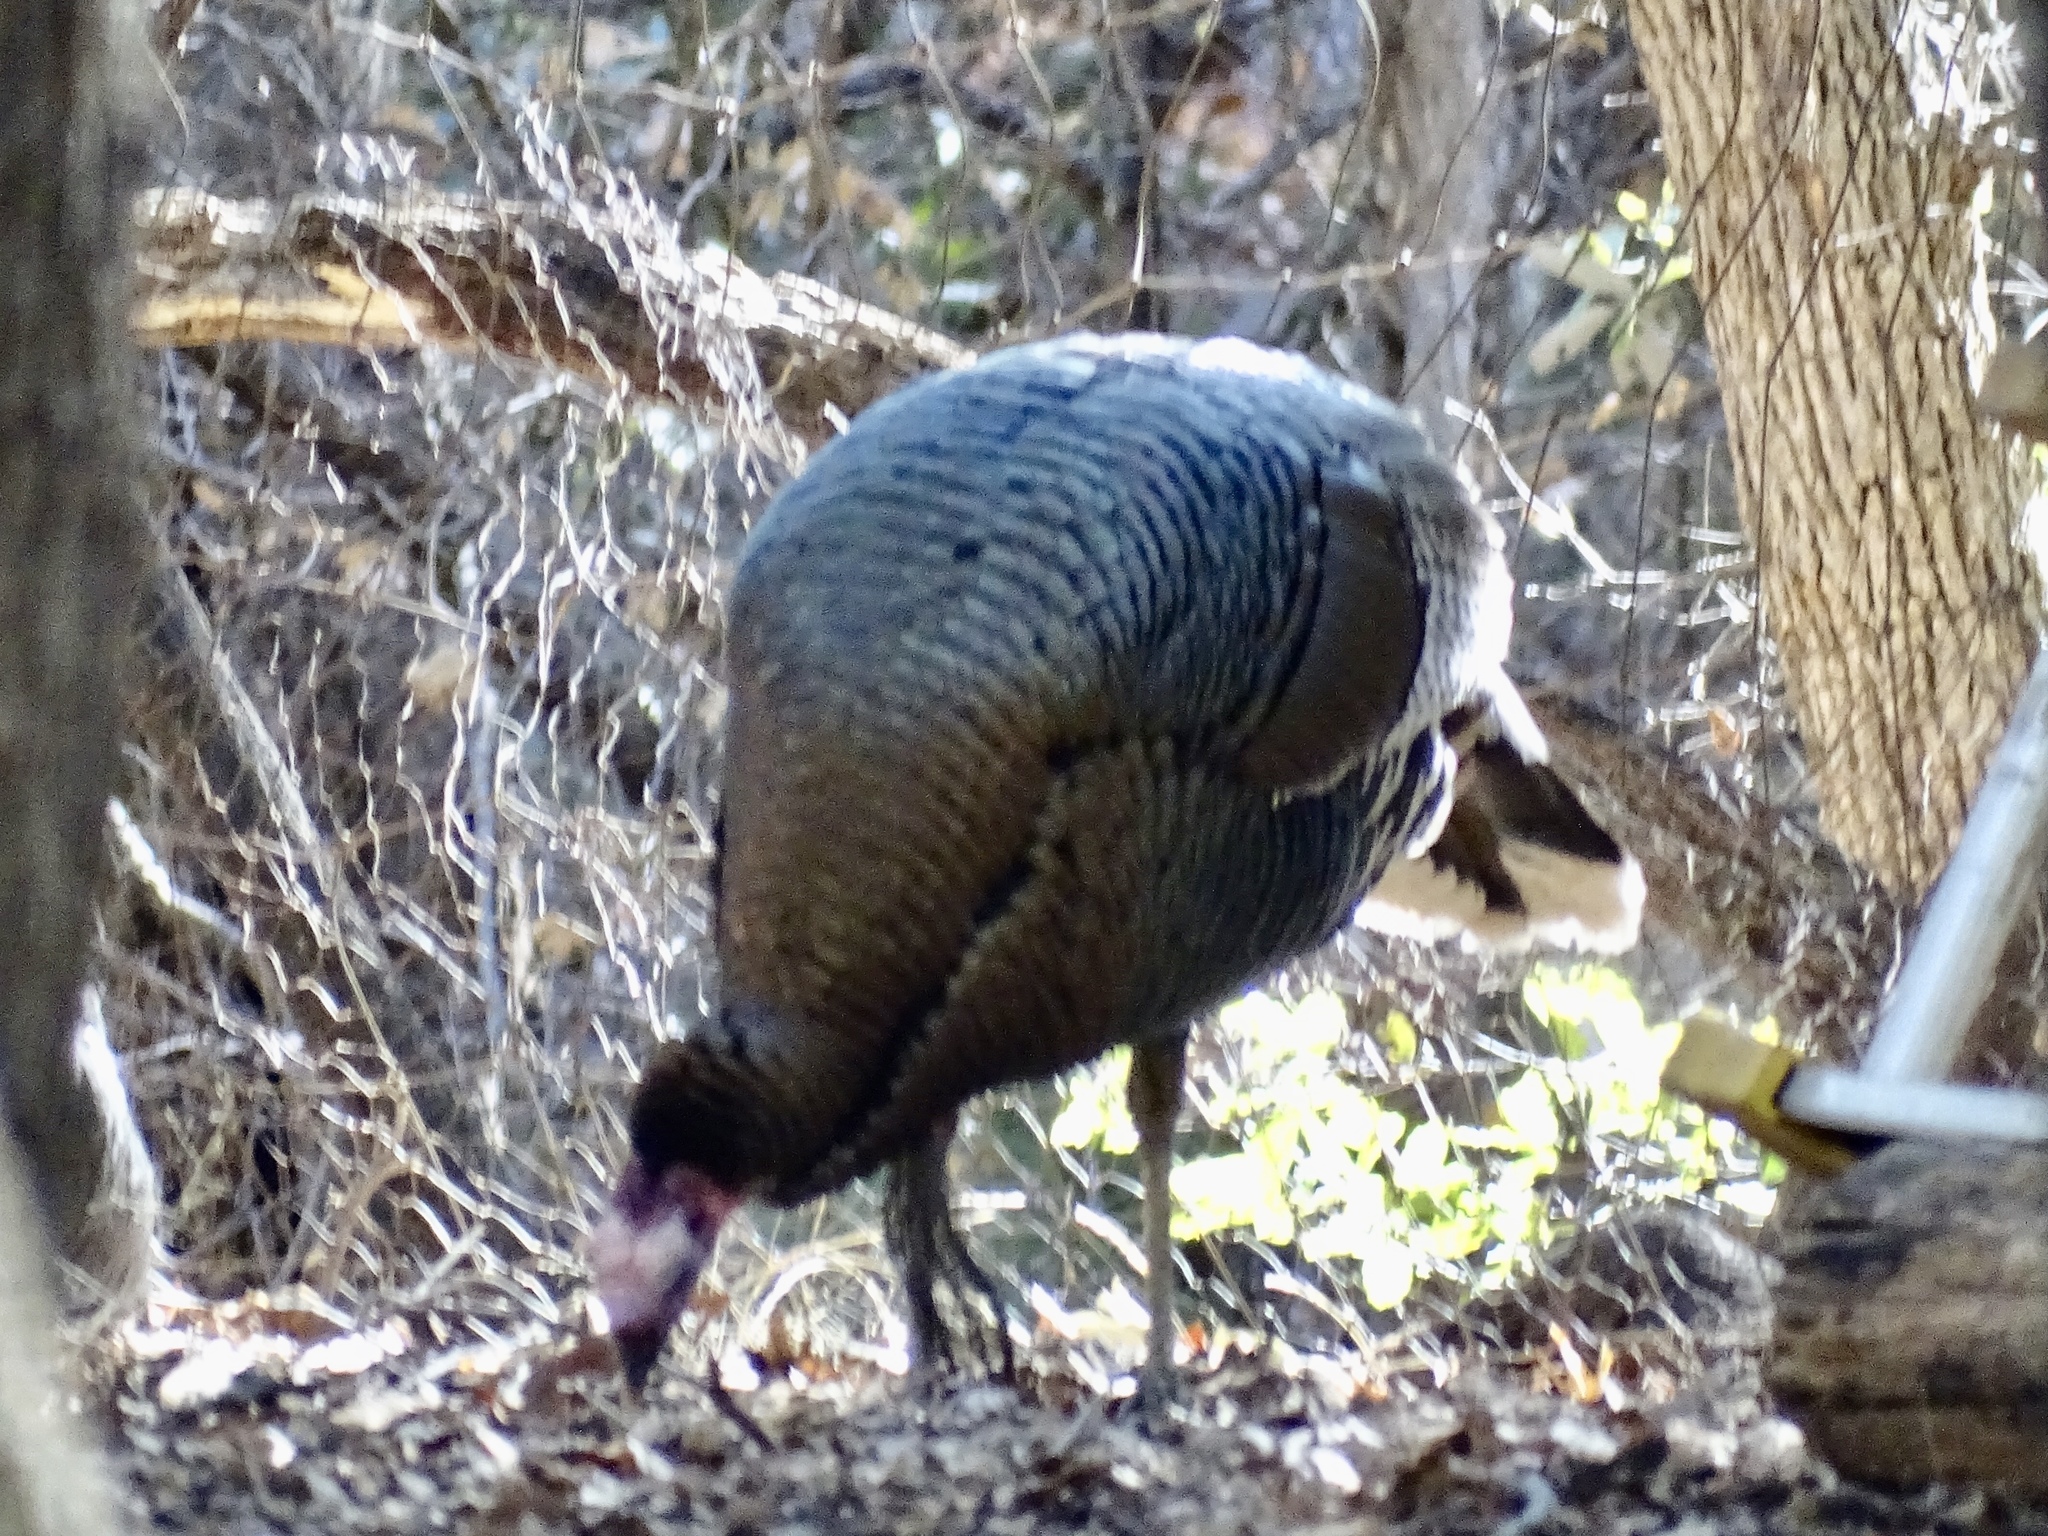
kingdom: Animalia
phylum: Chordata
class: Aves
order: Galliformes
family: Phasianidae
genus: Meleagris
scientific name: Meleagris gallopavo
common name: Wild turkey
